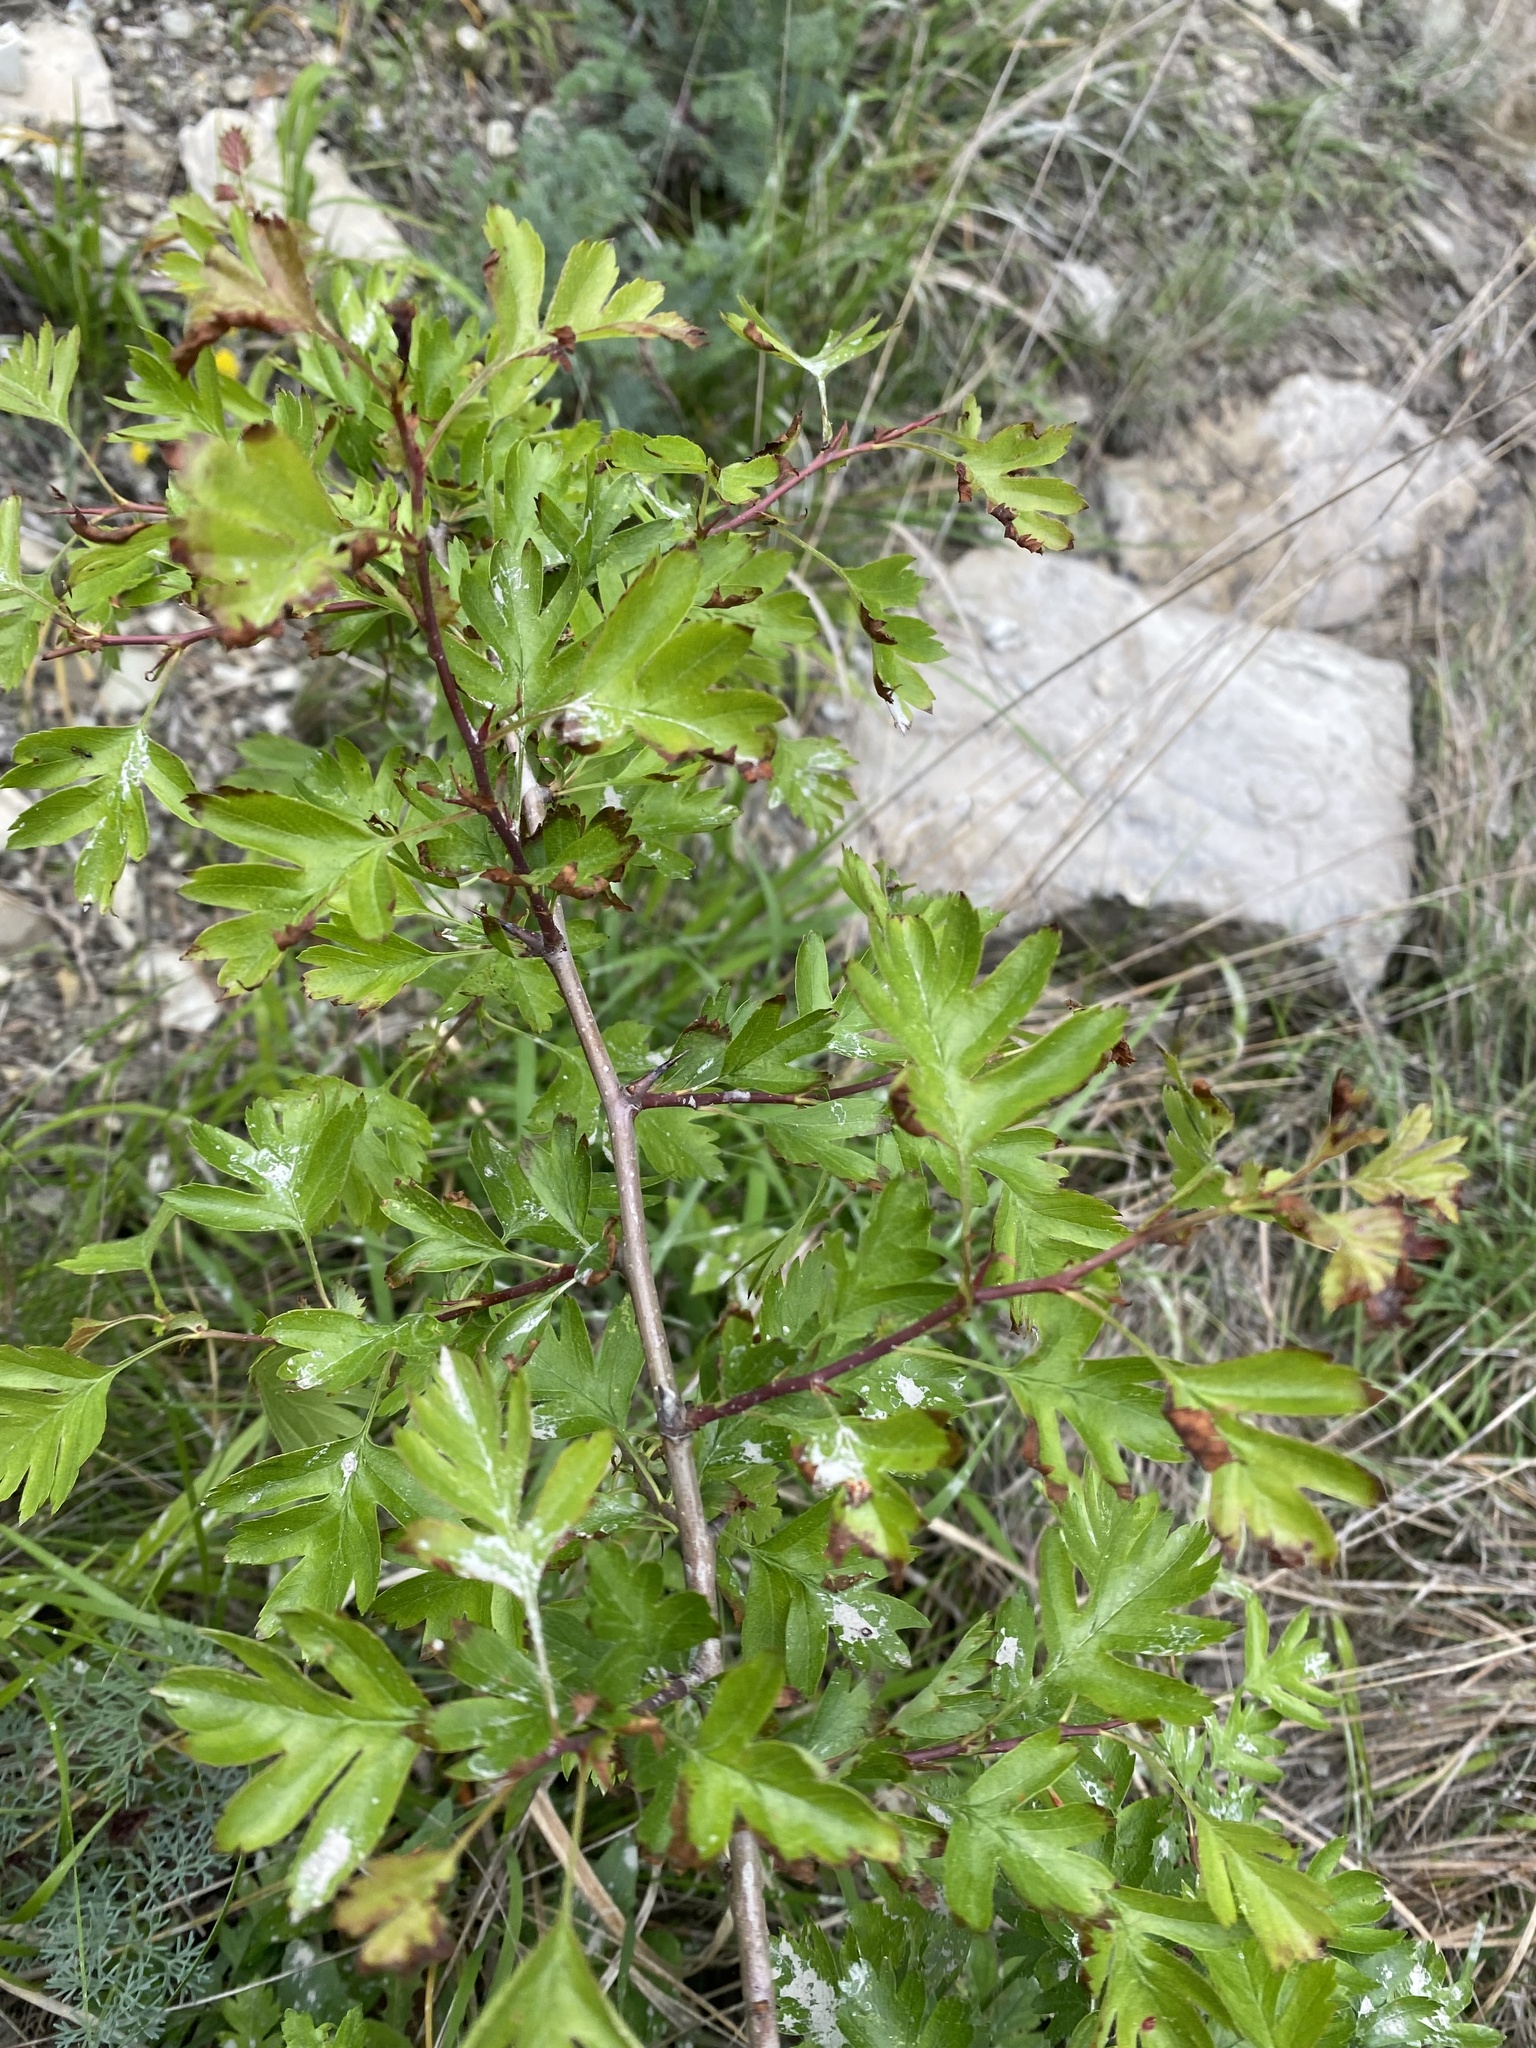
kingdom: Plantae
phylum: Tracheophyta
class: Magnoliopsida
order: Rosales
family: Rosaceae
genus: Crataegus
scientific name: Crataegus monogyna
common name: Hawthorn
